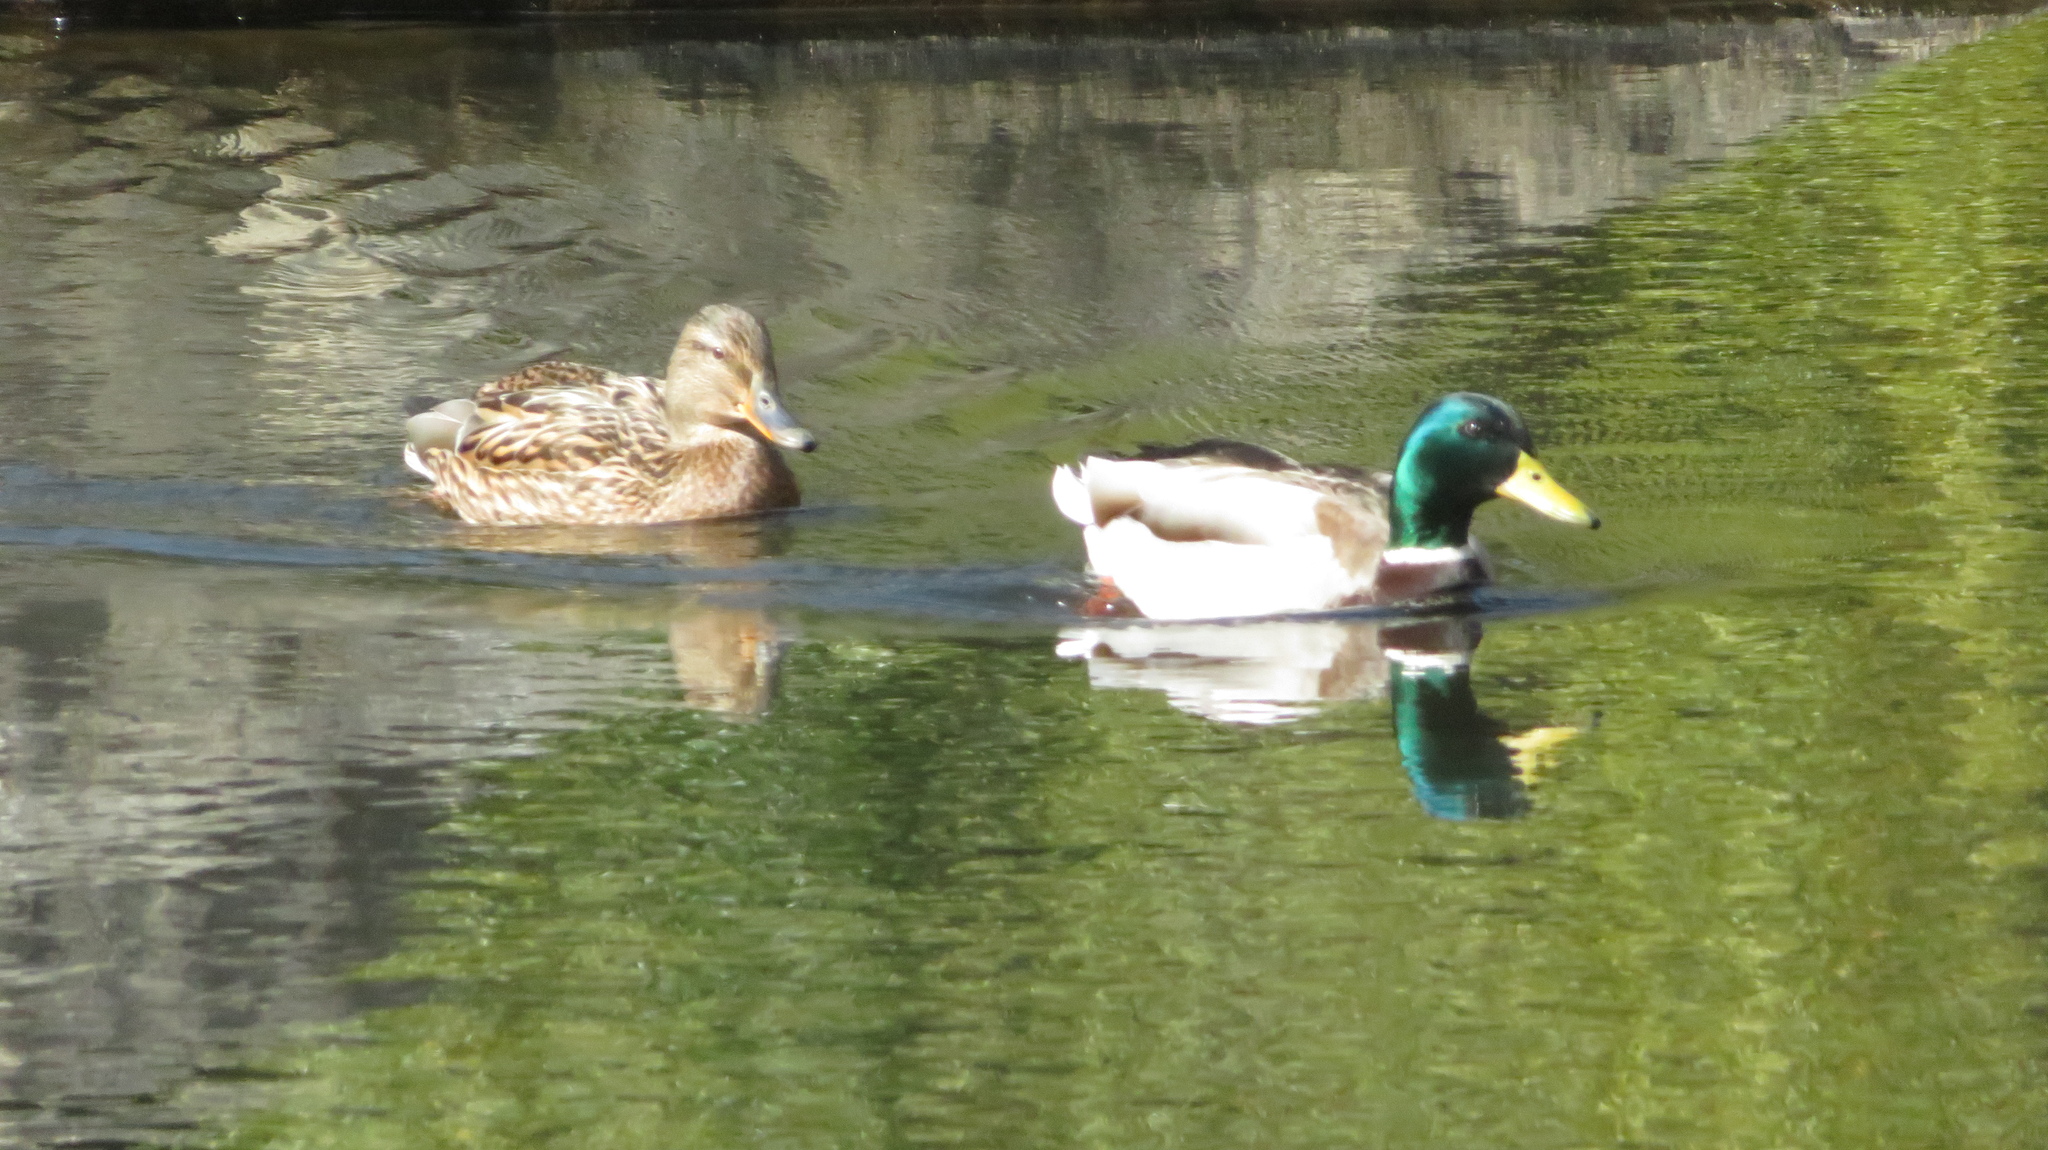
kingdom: Animalia
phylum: Chordata
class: Aves
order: Anseriformes
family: Anatidae
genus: Anas
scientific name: Anas platyrhynchos
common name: Mallard
